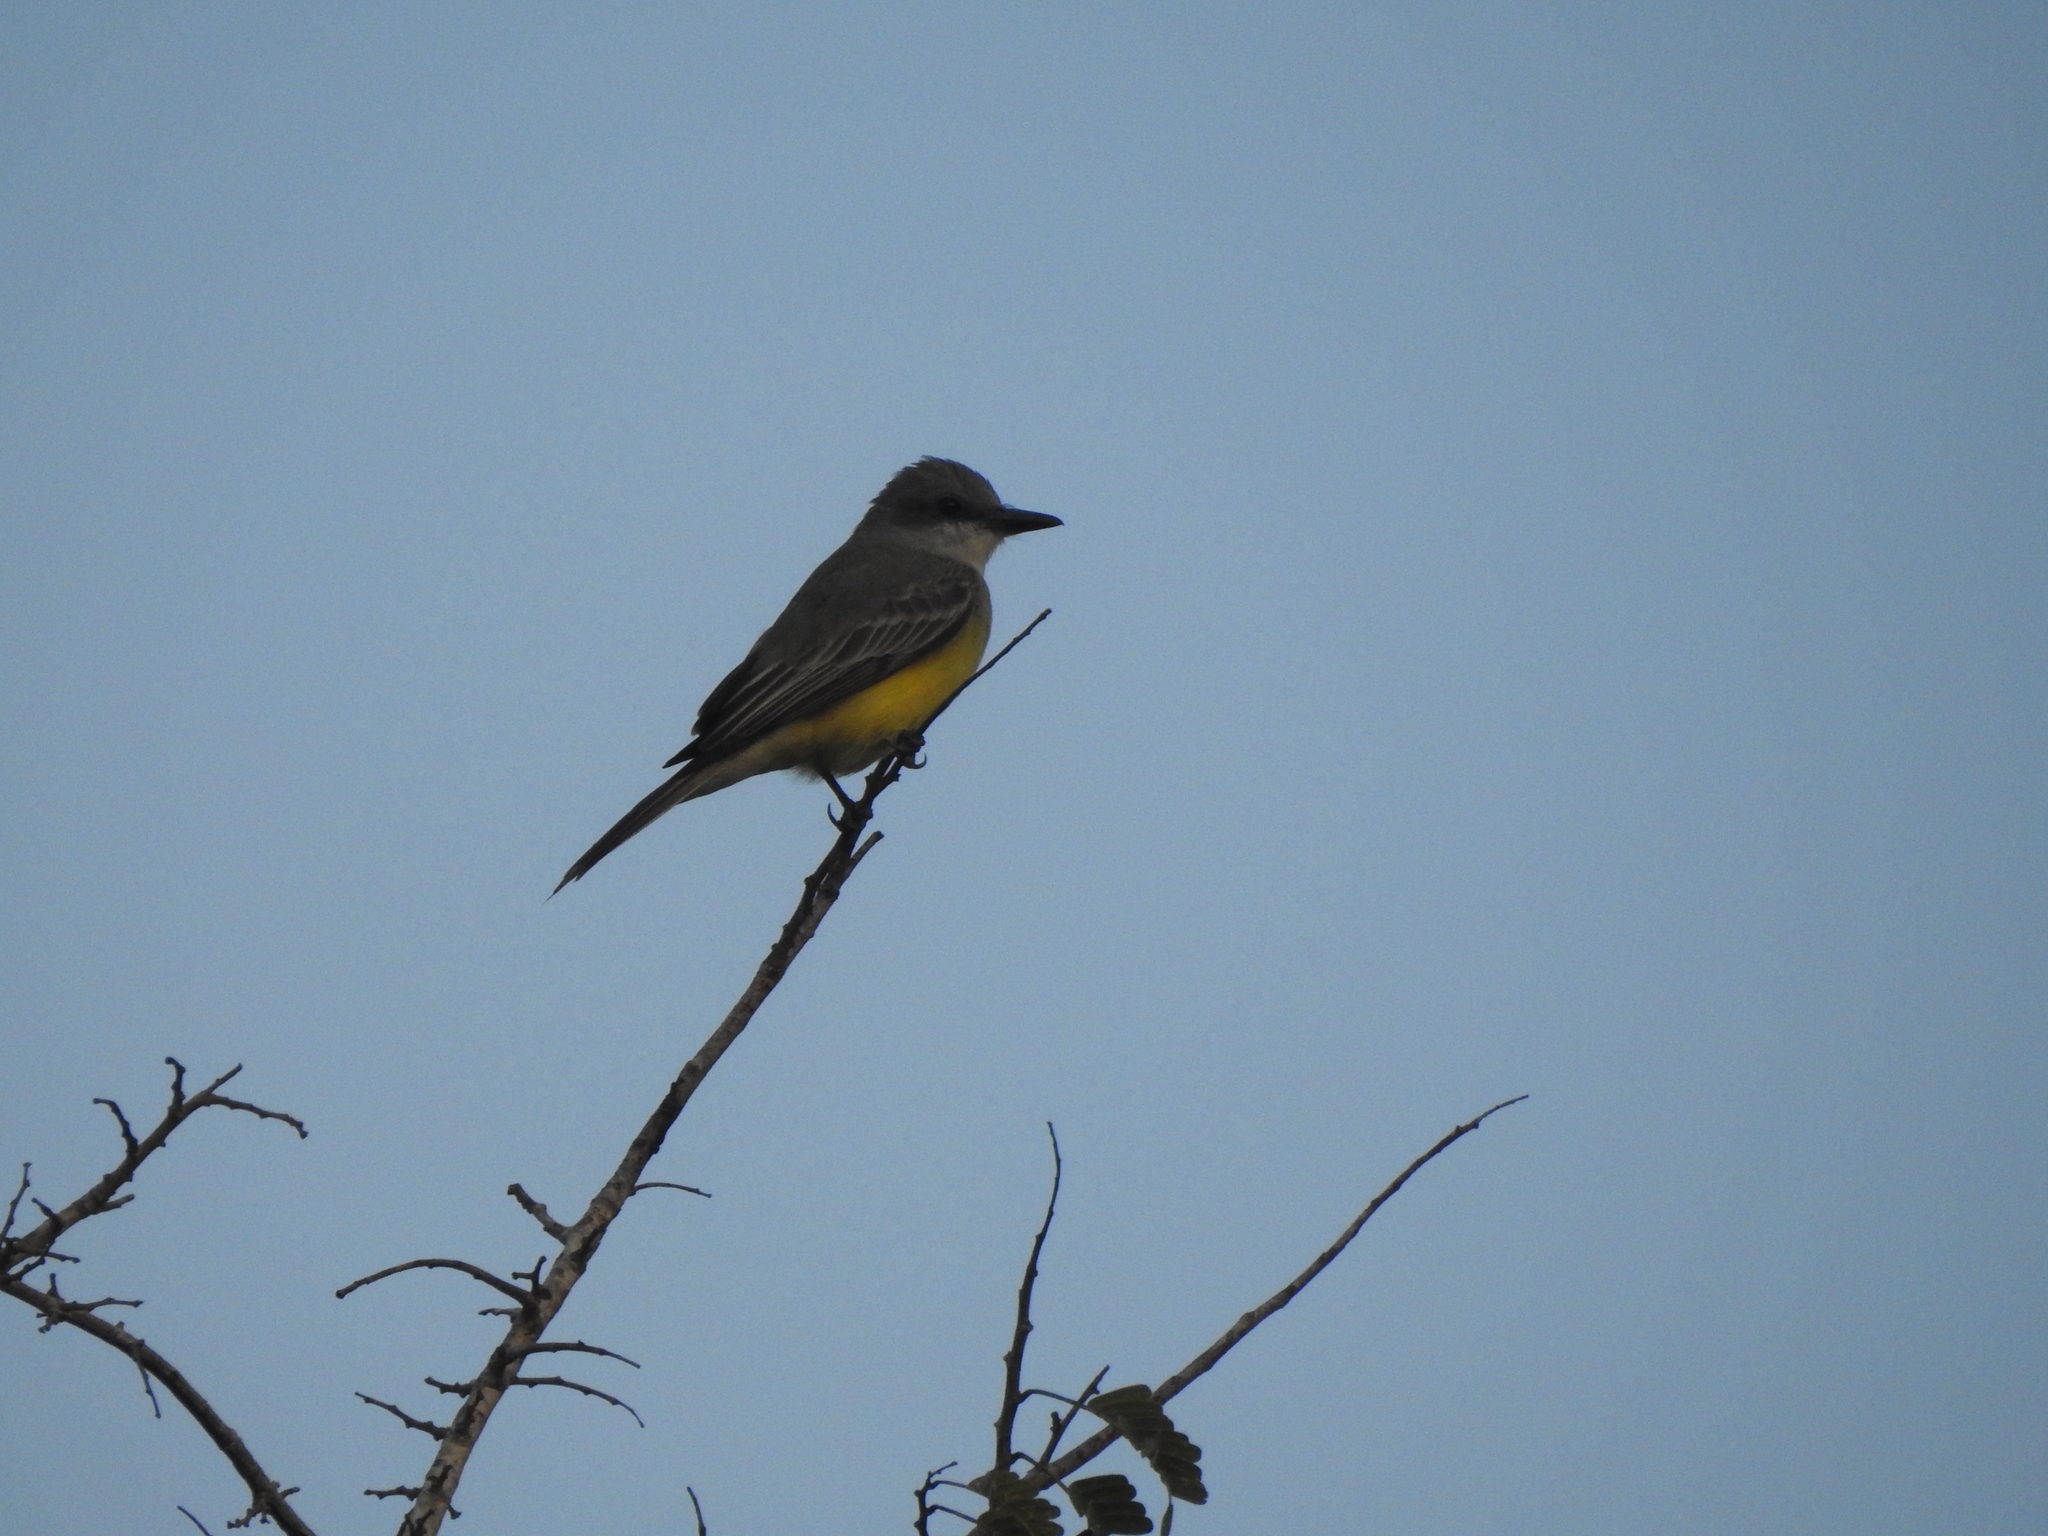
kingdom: Animalia
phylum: Chordata
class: Aves
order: Passeriformes
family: Tyrannidae
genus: Tyrannus
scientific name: Tyrannus melancholicus
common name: Tropical kingbird
